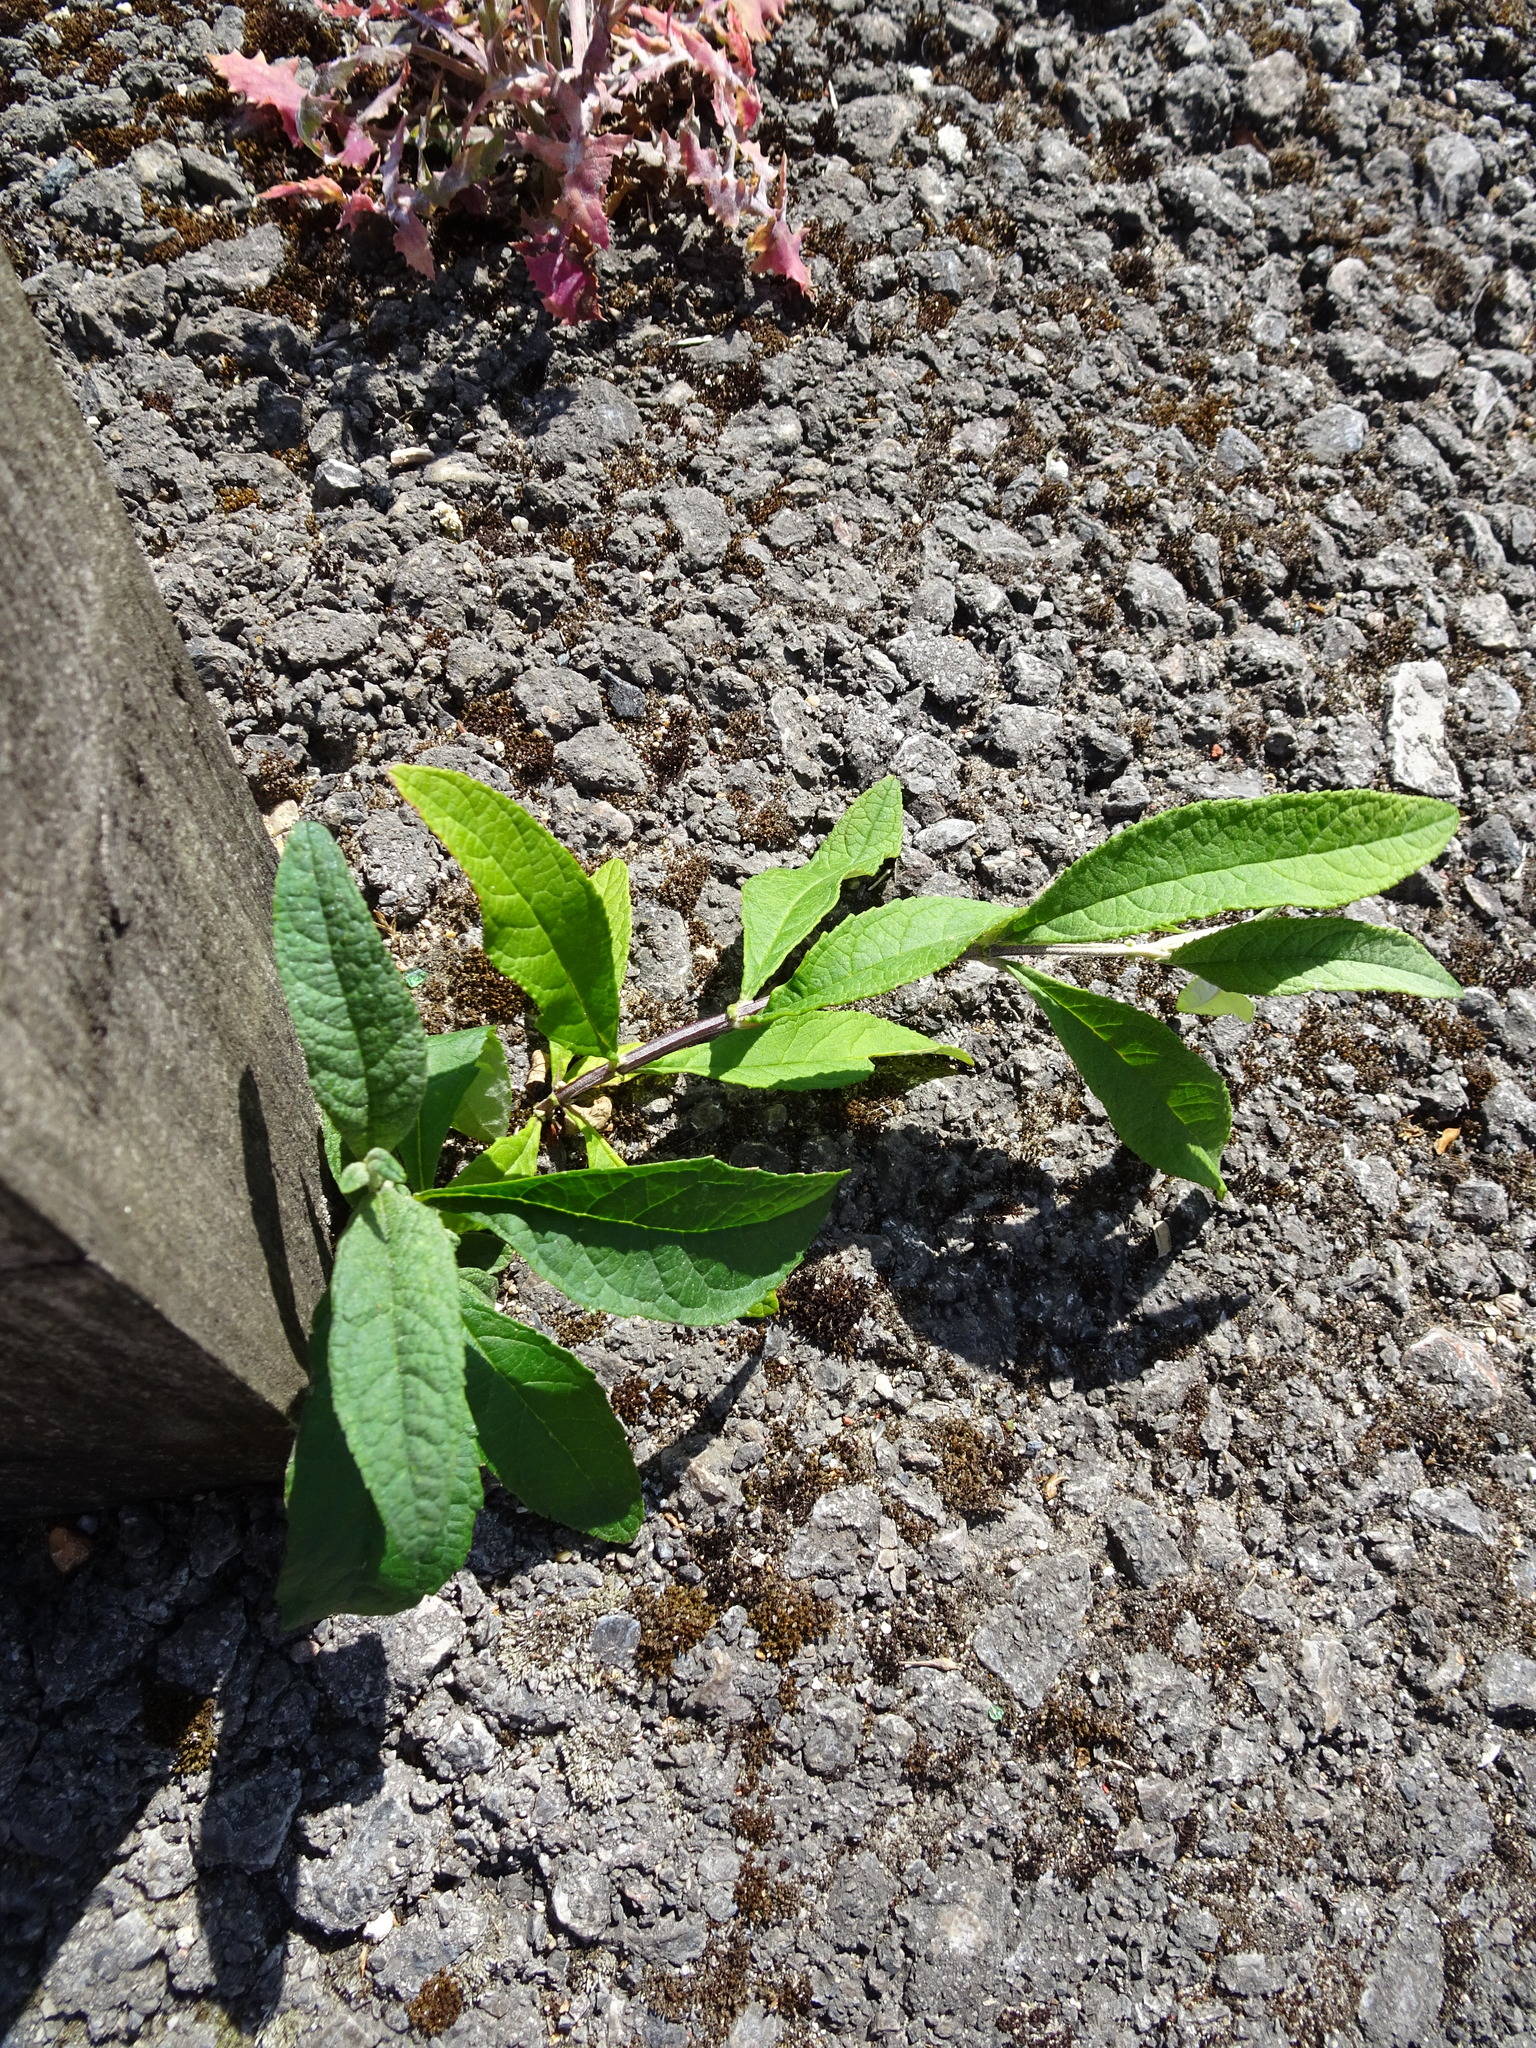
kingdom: Plantae
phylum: Tracheophyta
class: Magnoliopsida
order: Lamiales
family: Scrophulariaceae
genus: Buddleja
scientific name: Buddleja davidii
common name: Butterfly-bush
